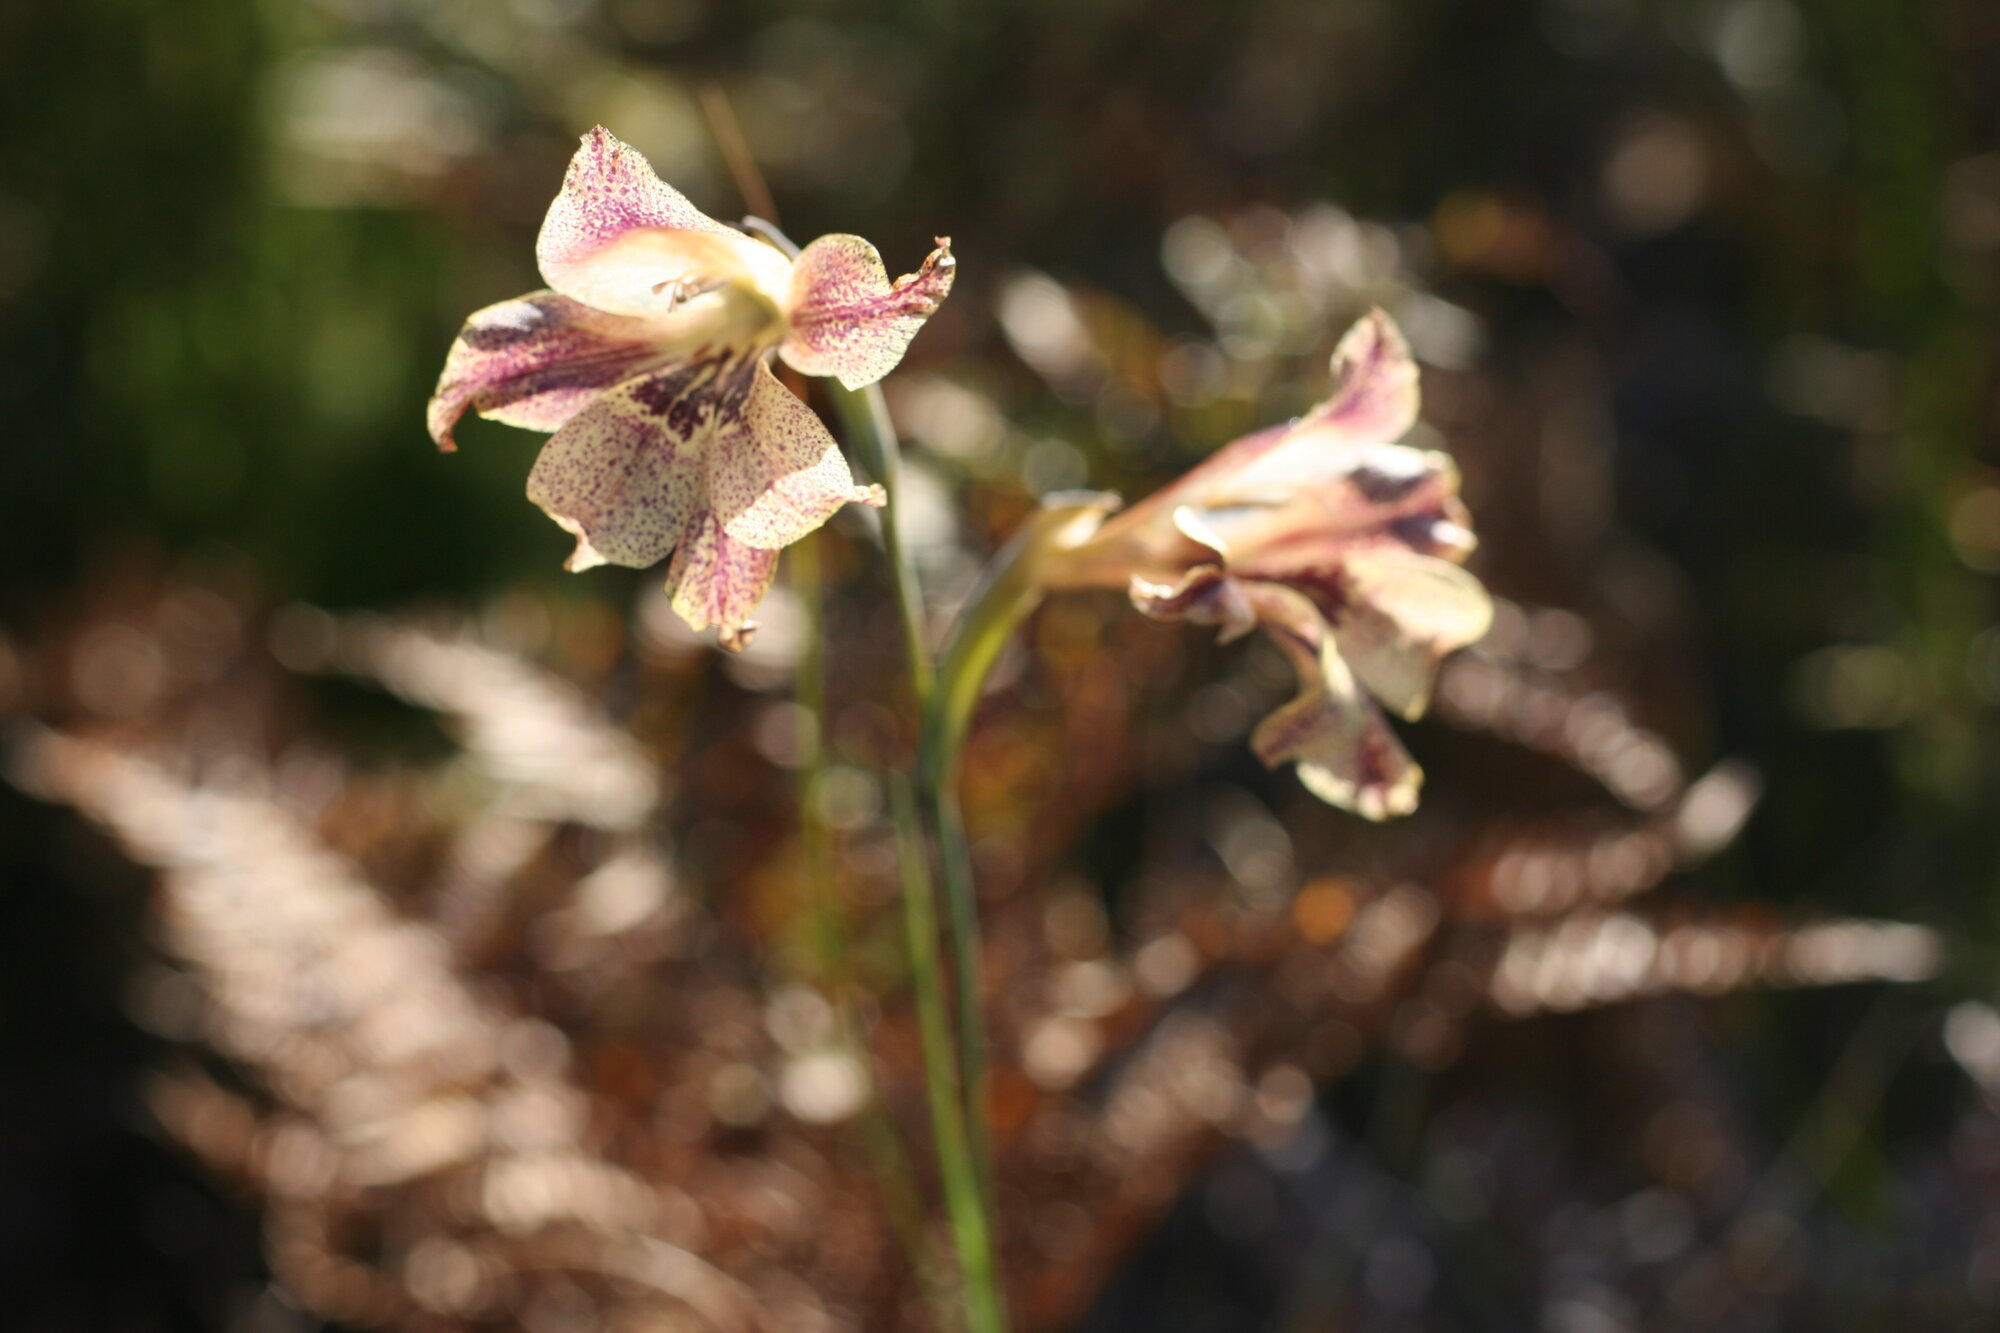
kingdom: Plantae
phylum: Tracheophyta
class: Liliopsida
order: Asparagales
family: Iridaceae
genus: Gladiolus
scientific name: Gladiolus maculatus
